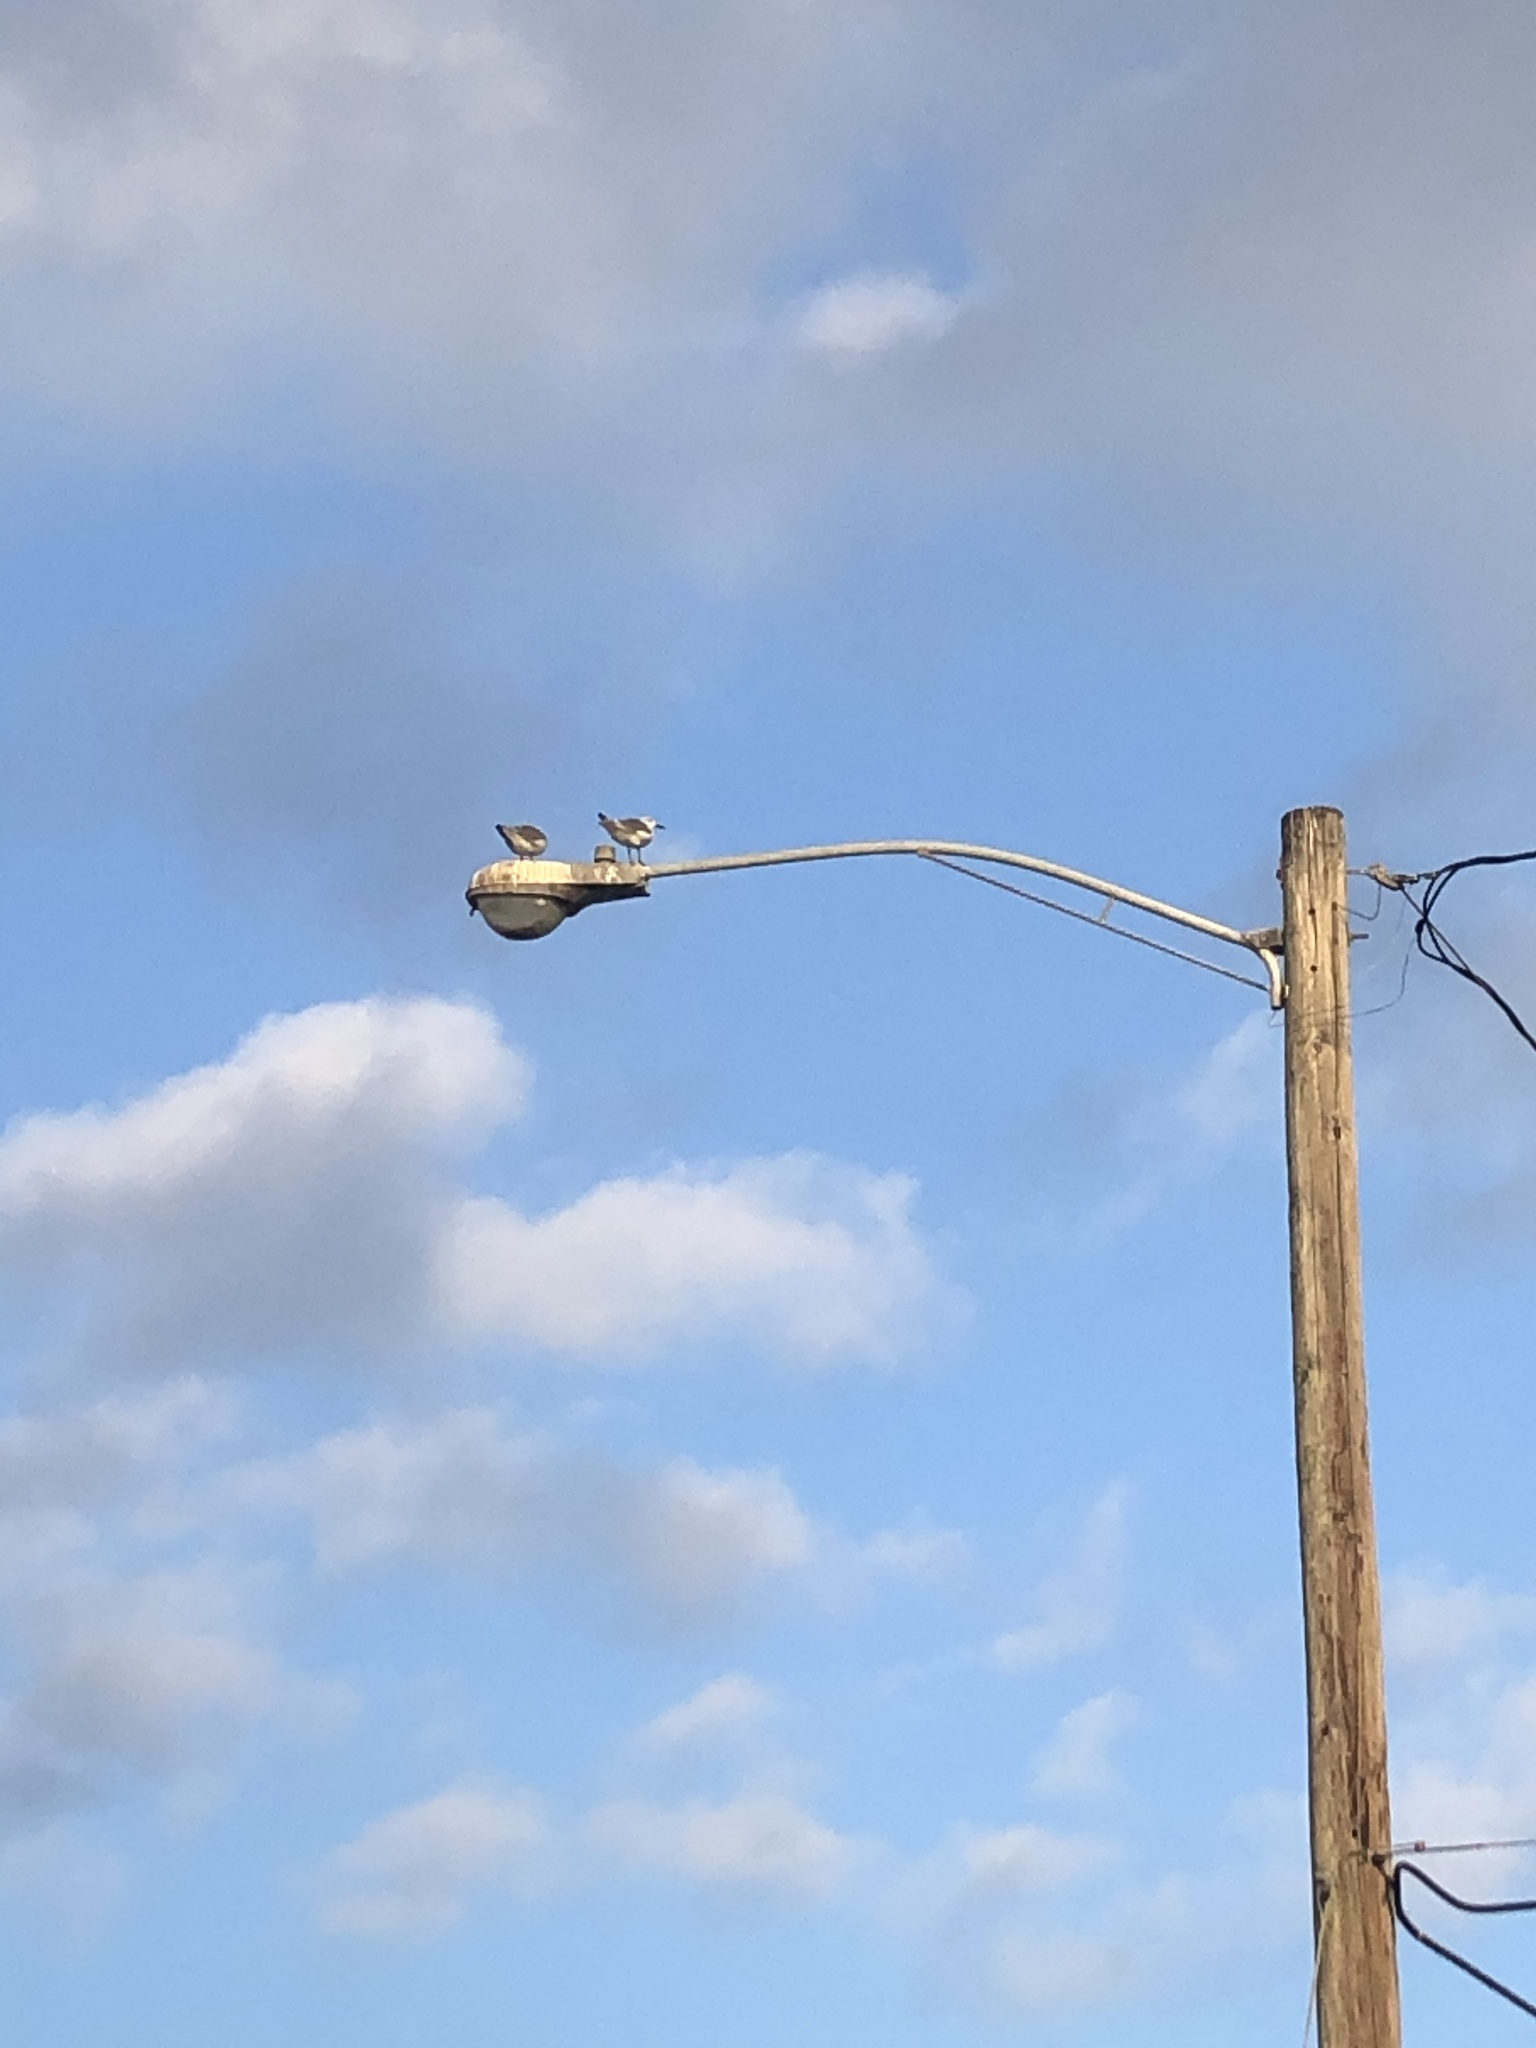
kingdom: Animalia
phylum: Chordata
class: Aves
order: Charadriiformes
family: Laridae
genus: Leucophaeus
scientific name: Leucophaeus atricilla
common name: Laughing gull
